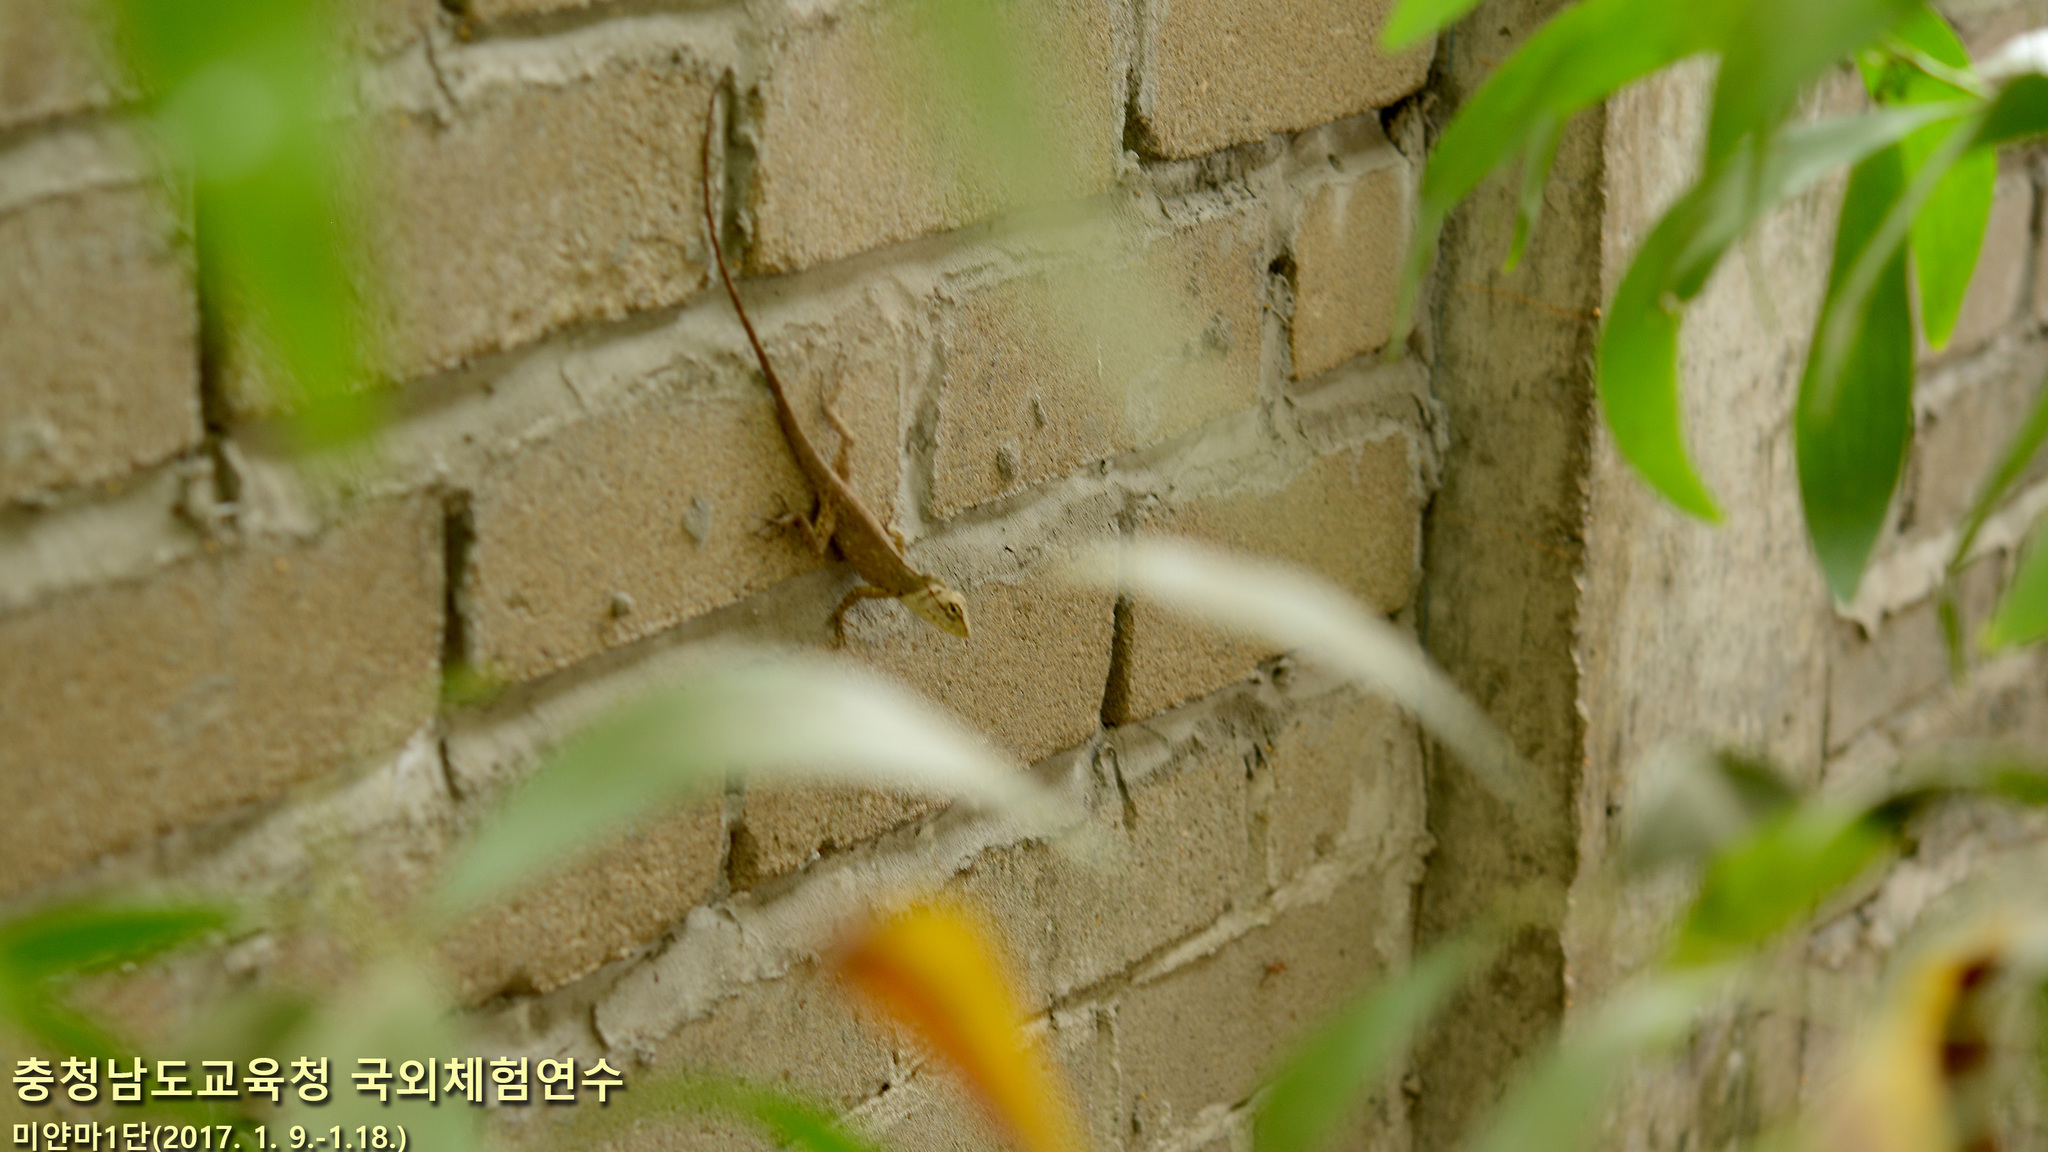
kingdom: Animalia
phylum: Chordata
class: Squamata
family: Agamidae
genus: Calotes
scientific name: Calotes versicolor
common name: Oriental garden lizard
